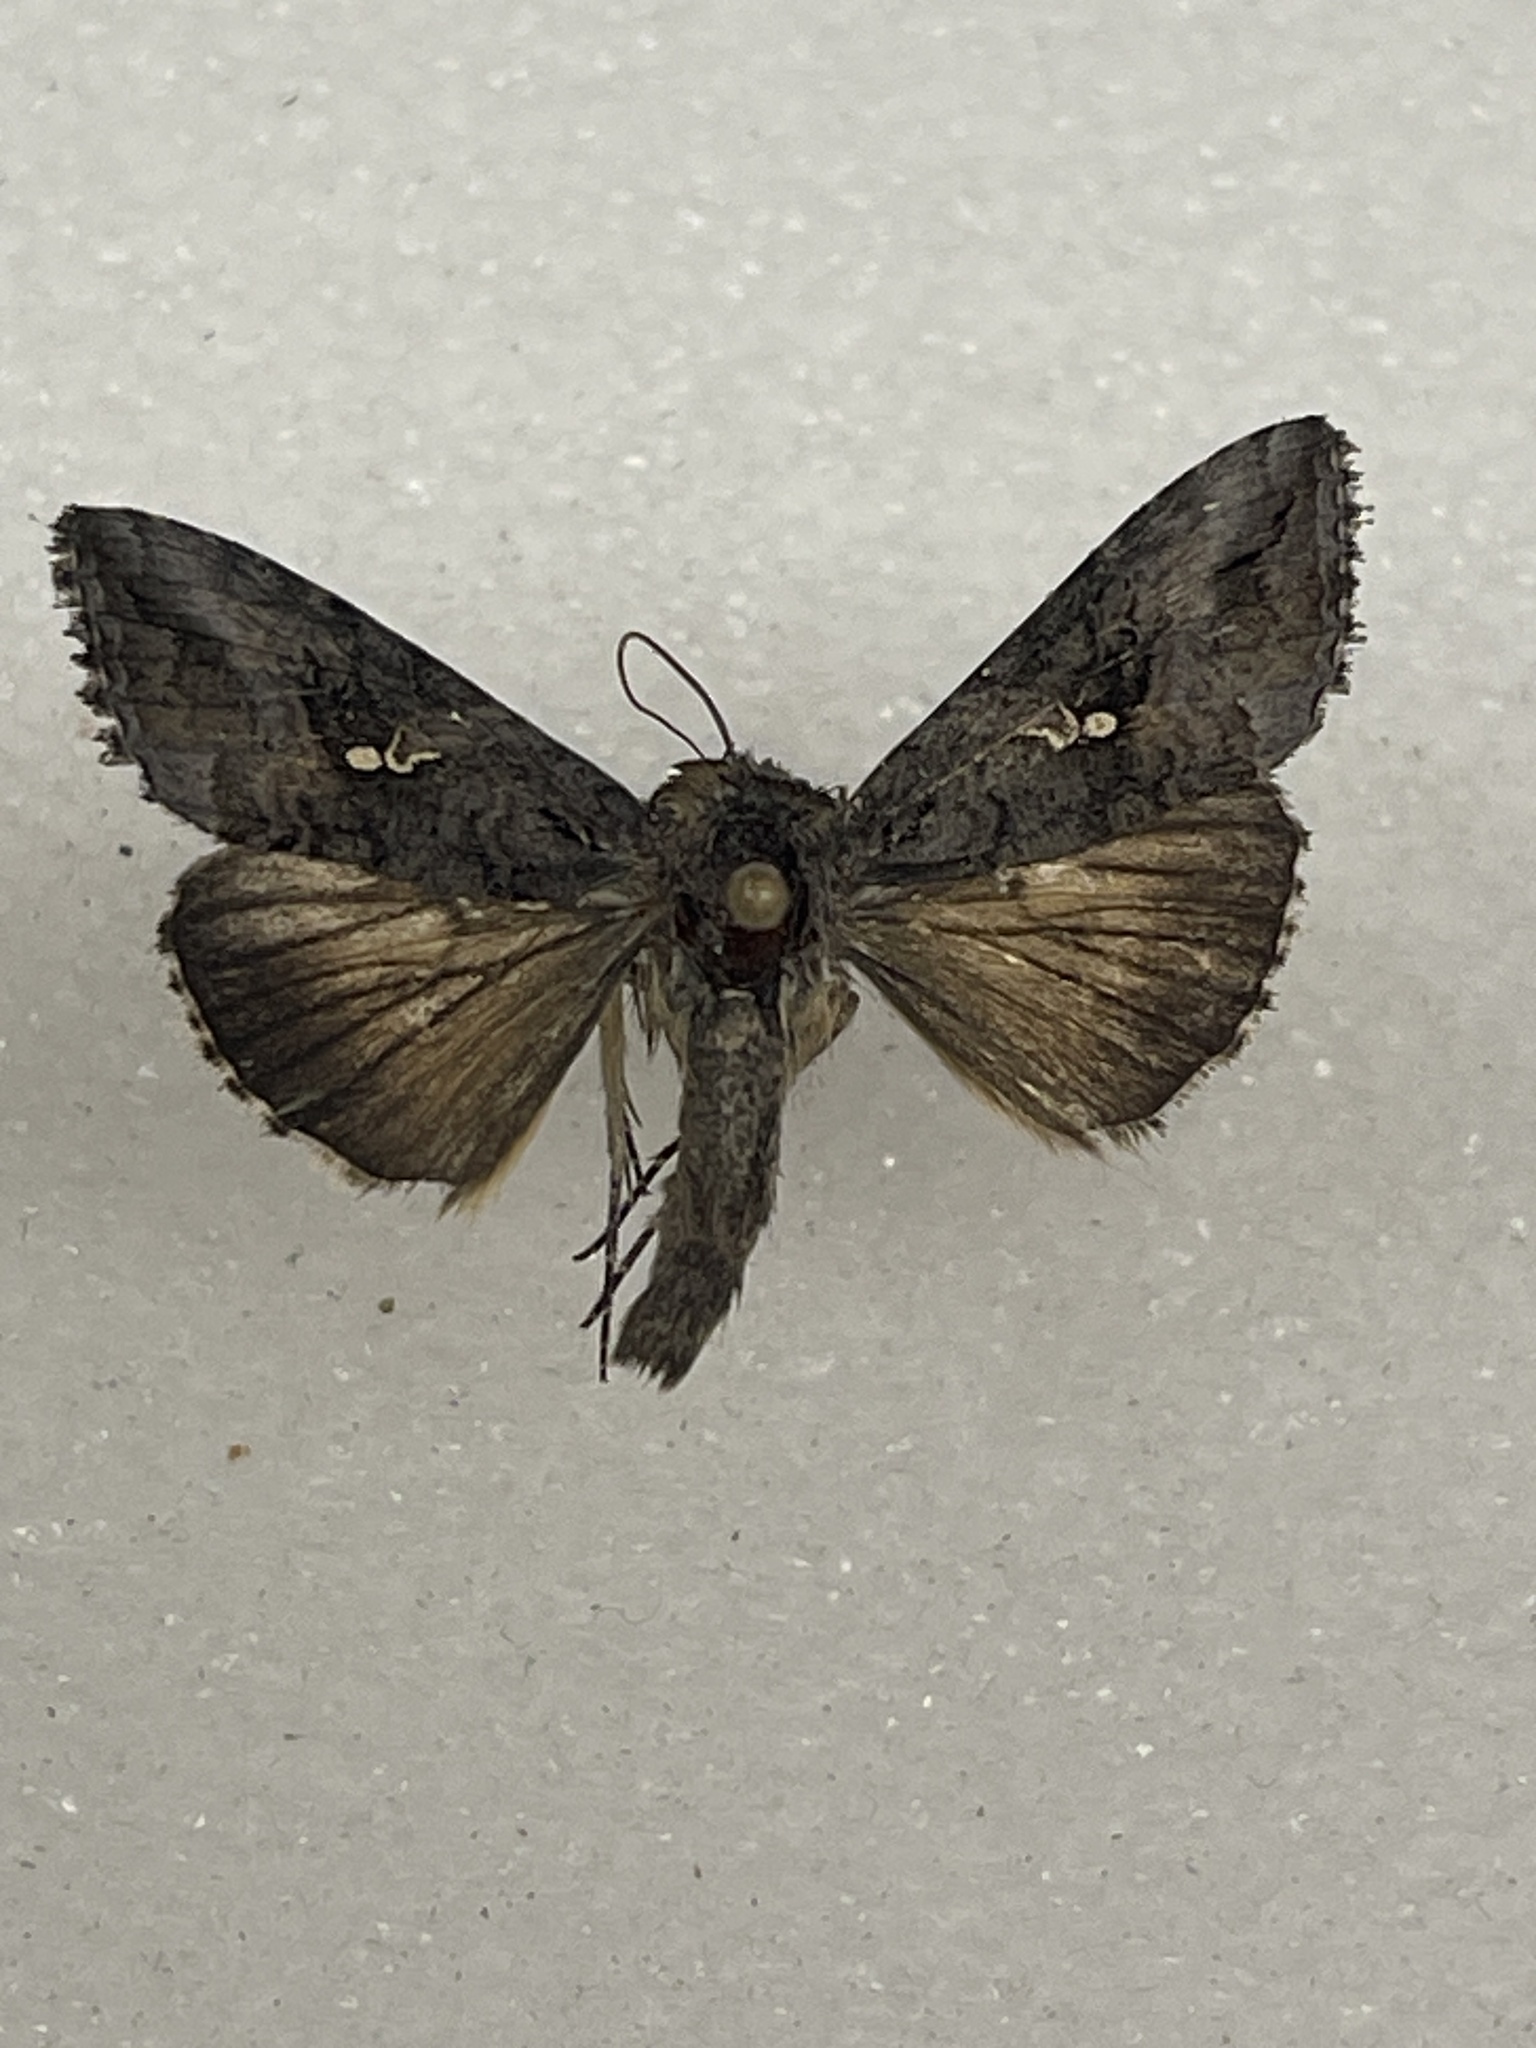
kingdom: Animalia
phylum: Arthropoda
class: Insecta
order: Lepidoptera
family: Noctuidae
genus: Rachiplusia
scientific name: Rachiplusia ou
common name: Gray looper moth
